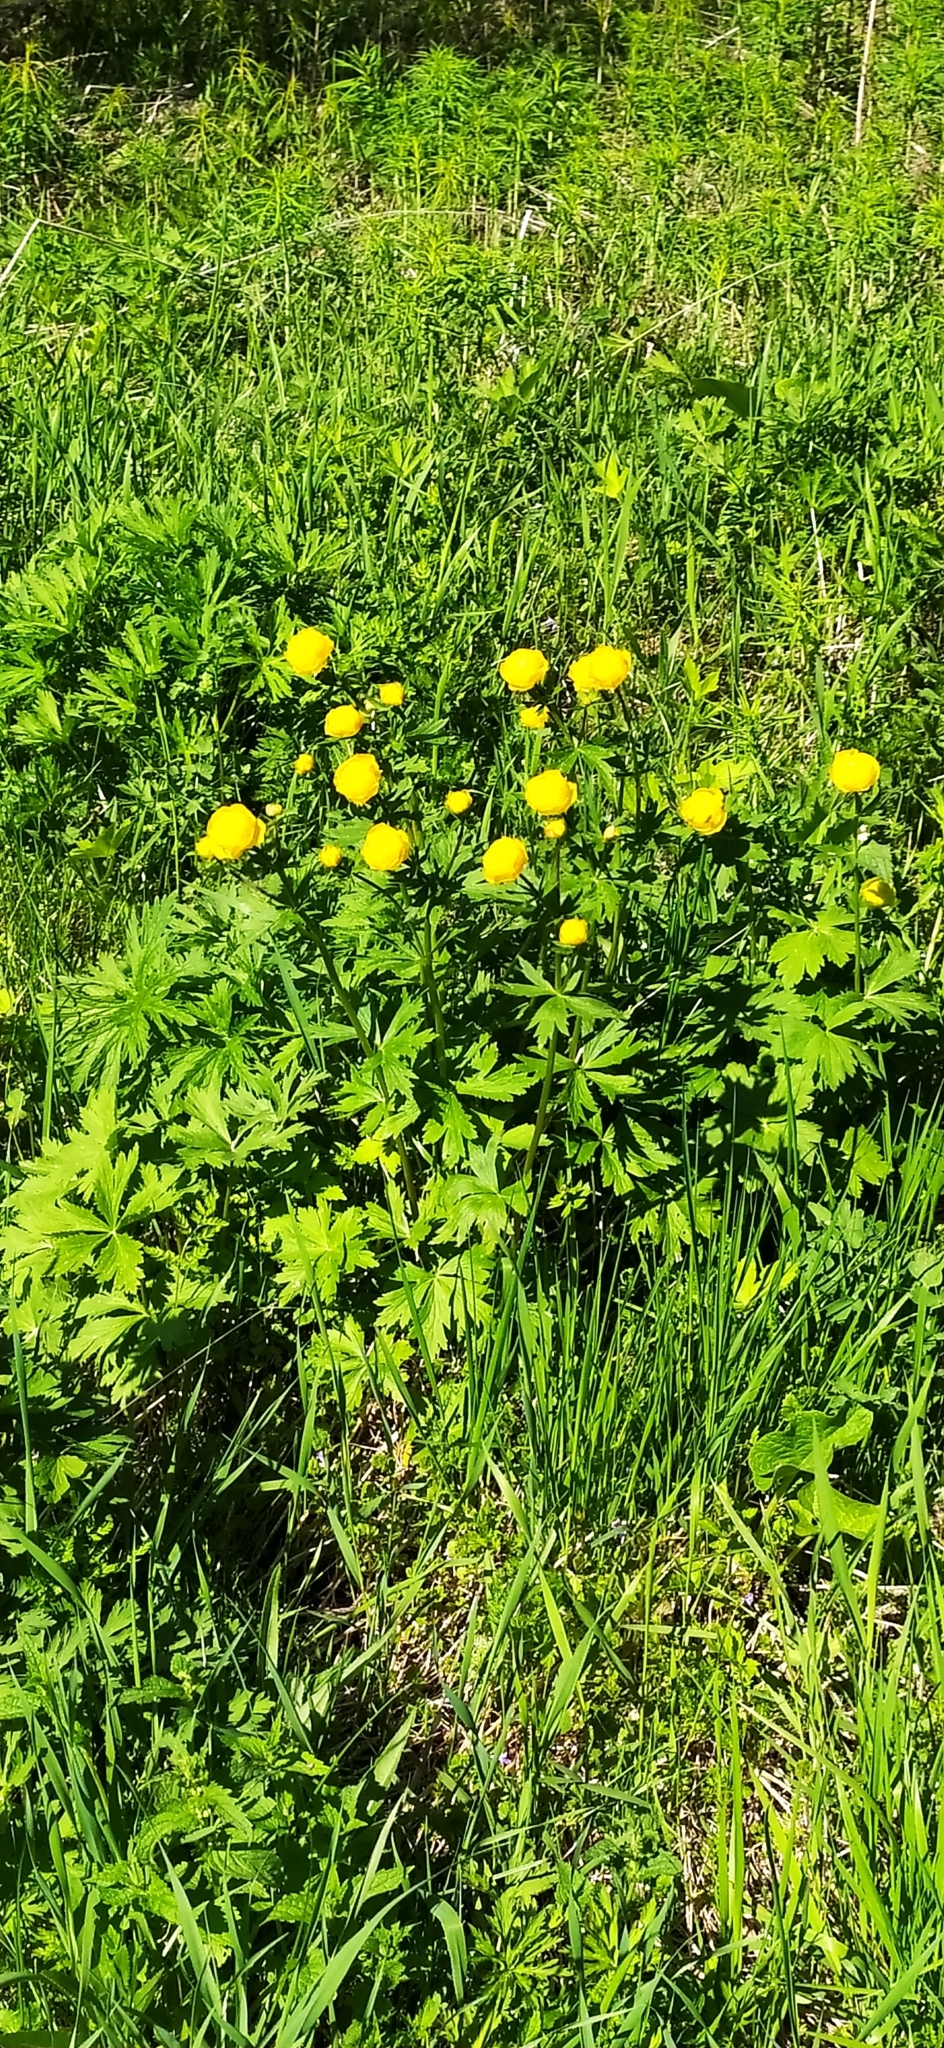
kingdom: Plantae
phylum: Tracheophyta
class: Magnoliopsida
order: Ranunculales
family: Ranunculaceae
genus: Trollius
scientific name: Trollius europaeus
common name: European globeflower
